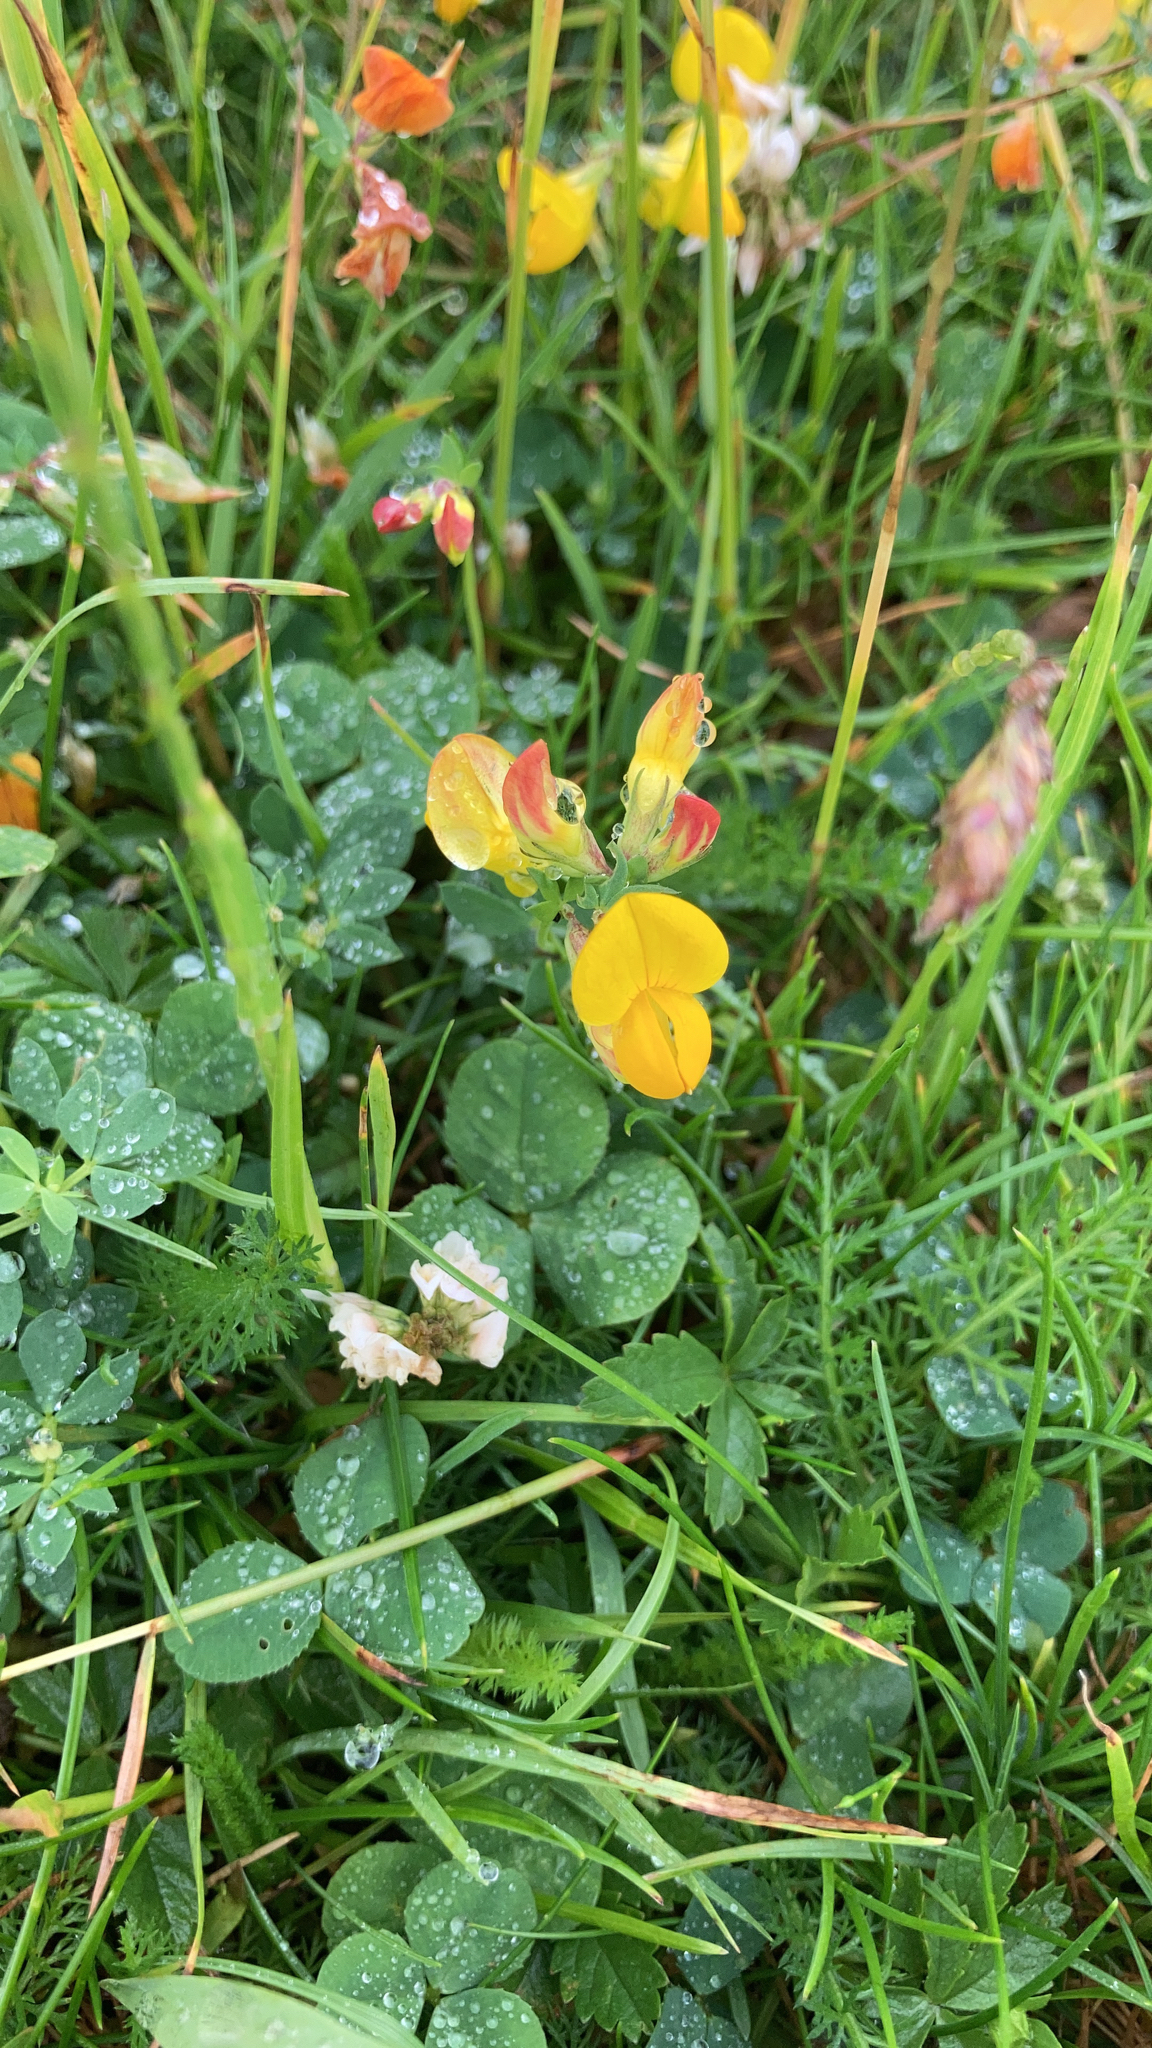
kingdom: Plantae
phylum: Tracheophyta
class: Magnoliopsida
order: Fabales
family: Fabaceae
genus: Lotus
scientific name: Lotus corniculatus
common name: Common bird's-foot-trefoil
